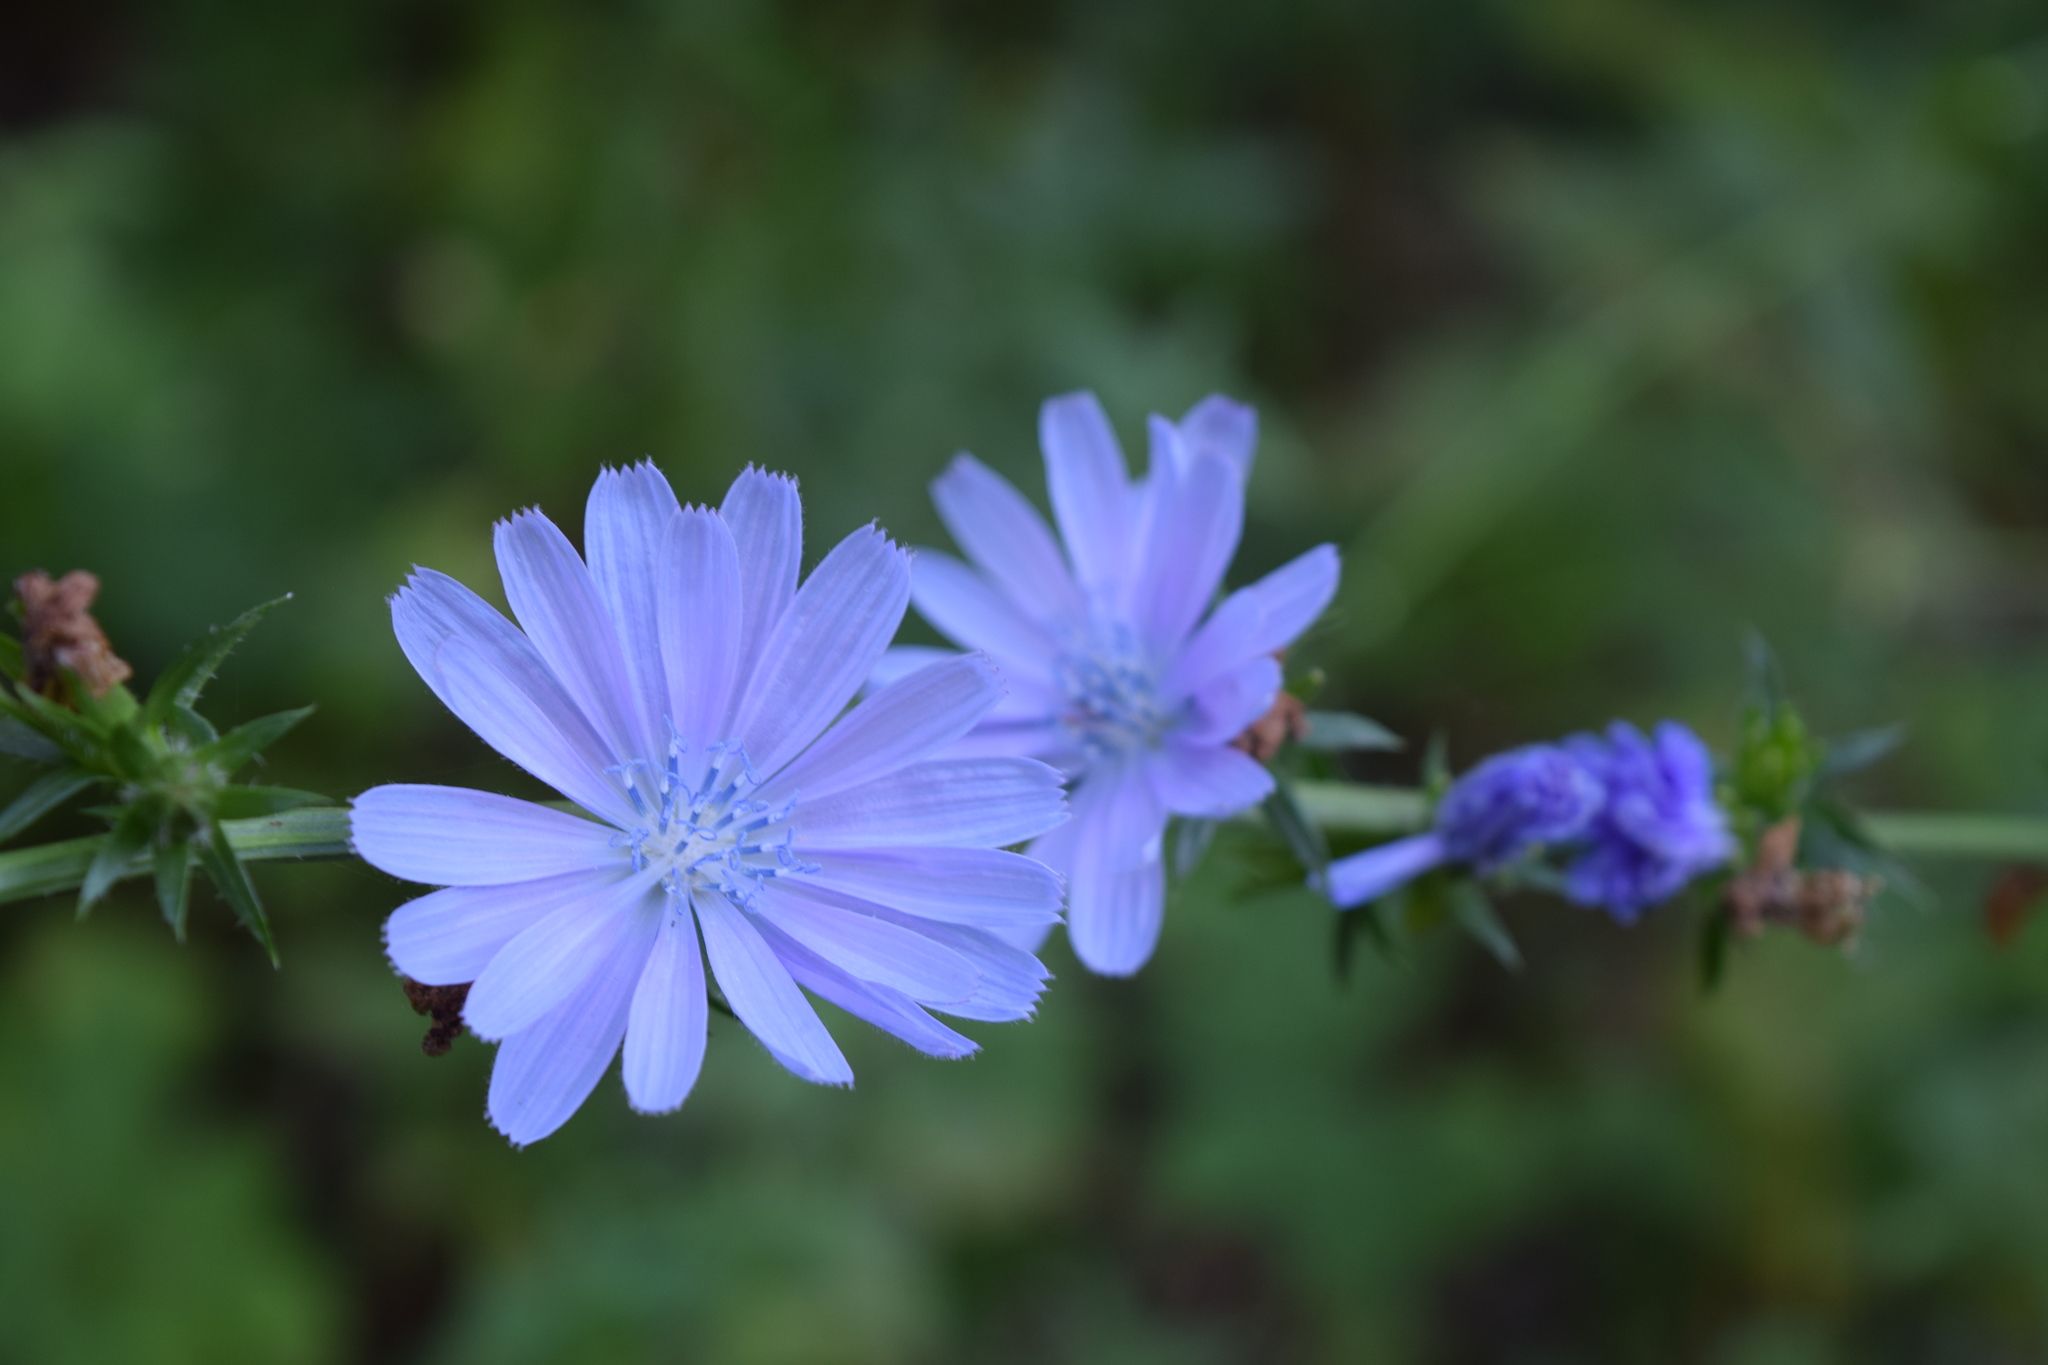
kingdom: Plantae
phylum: Tracheophyta
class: Magnoliopsida
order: Asterales
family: Asteraceae
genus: Cichorium
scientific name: Cichorium intybus
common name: Chicory
